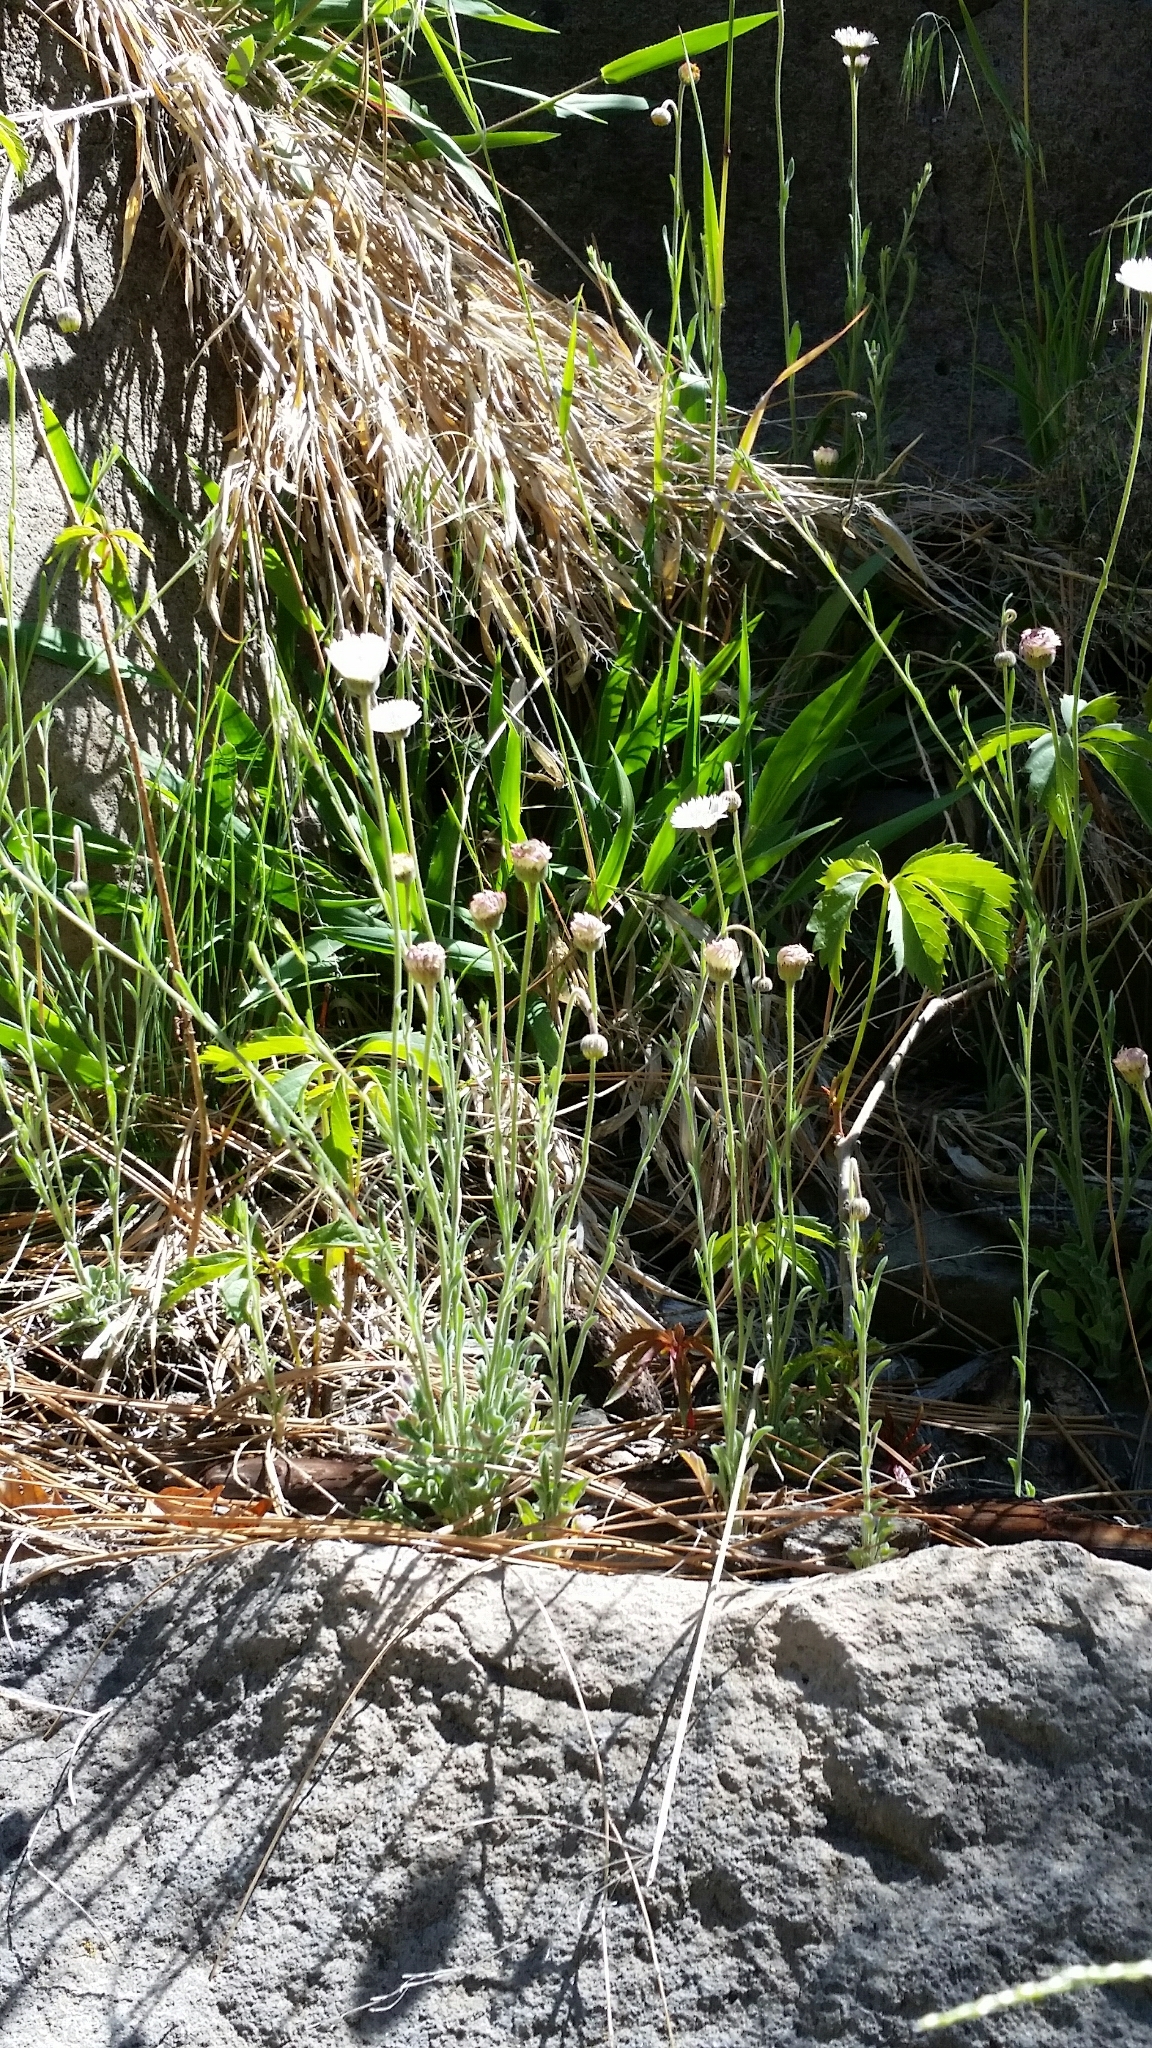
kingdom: Plantae
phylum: Tracheophyta
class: Magnoliopsida
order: Asterales
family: Asteraceae
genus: Erigeron
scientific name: Erigeron tracyi
